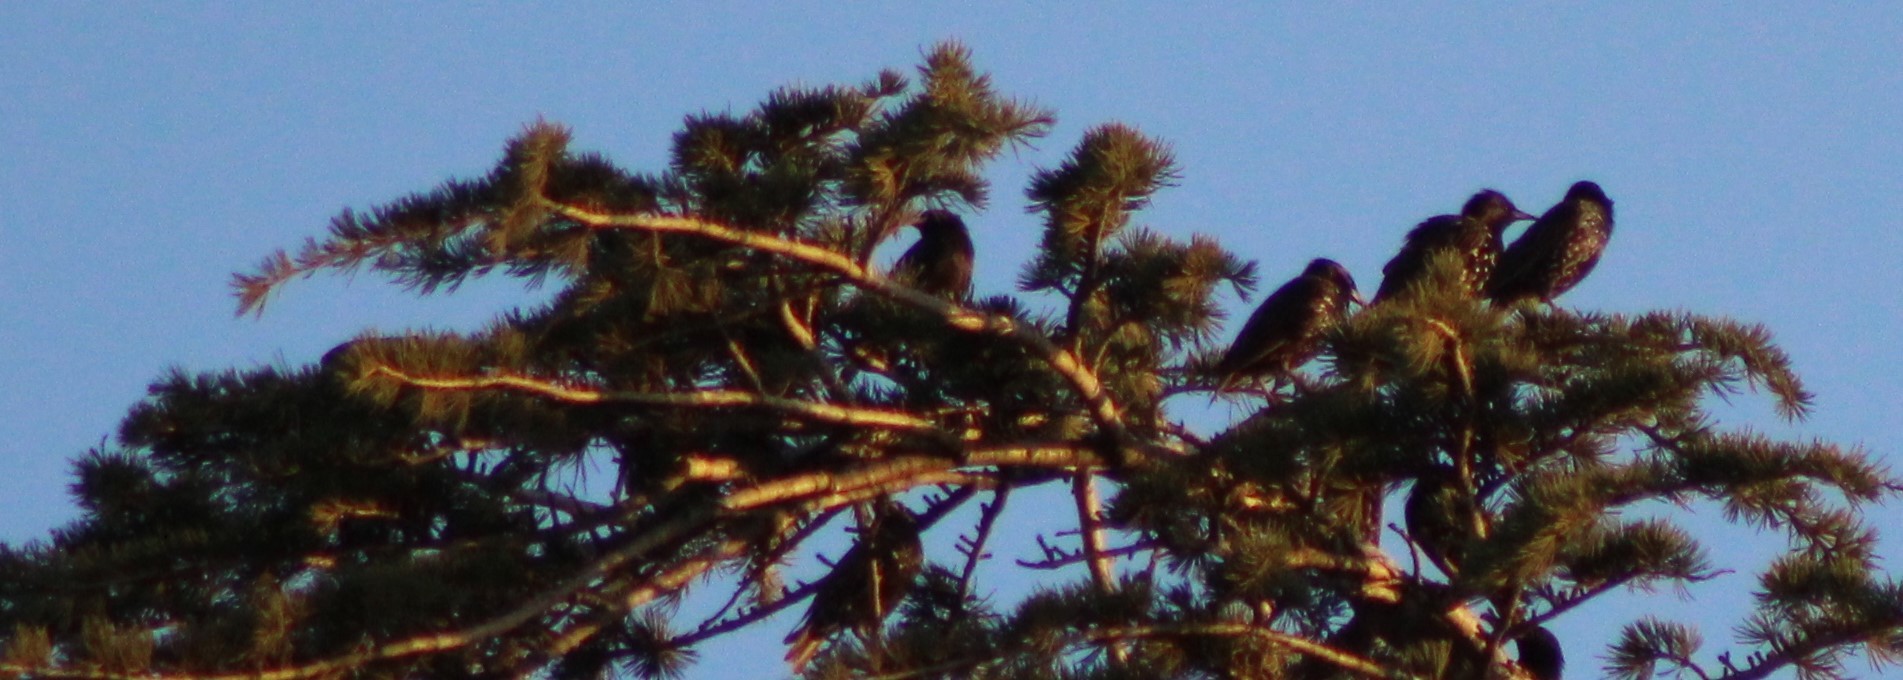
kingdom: Animalia
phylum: Chordata
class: Aves
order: Passeriformes
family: Sturnidae
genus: Sturnus
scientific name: Sturnus vulgaris
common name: Common starling
